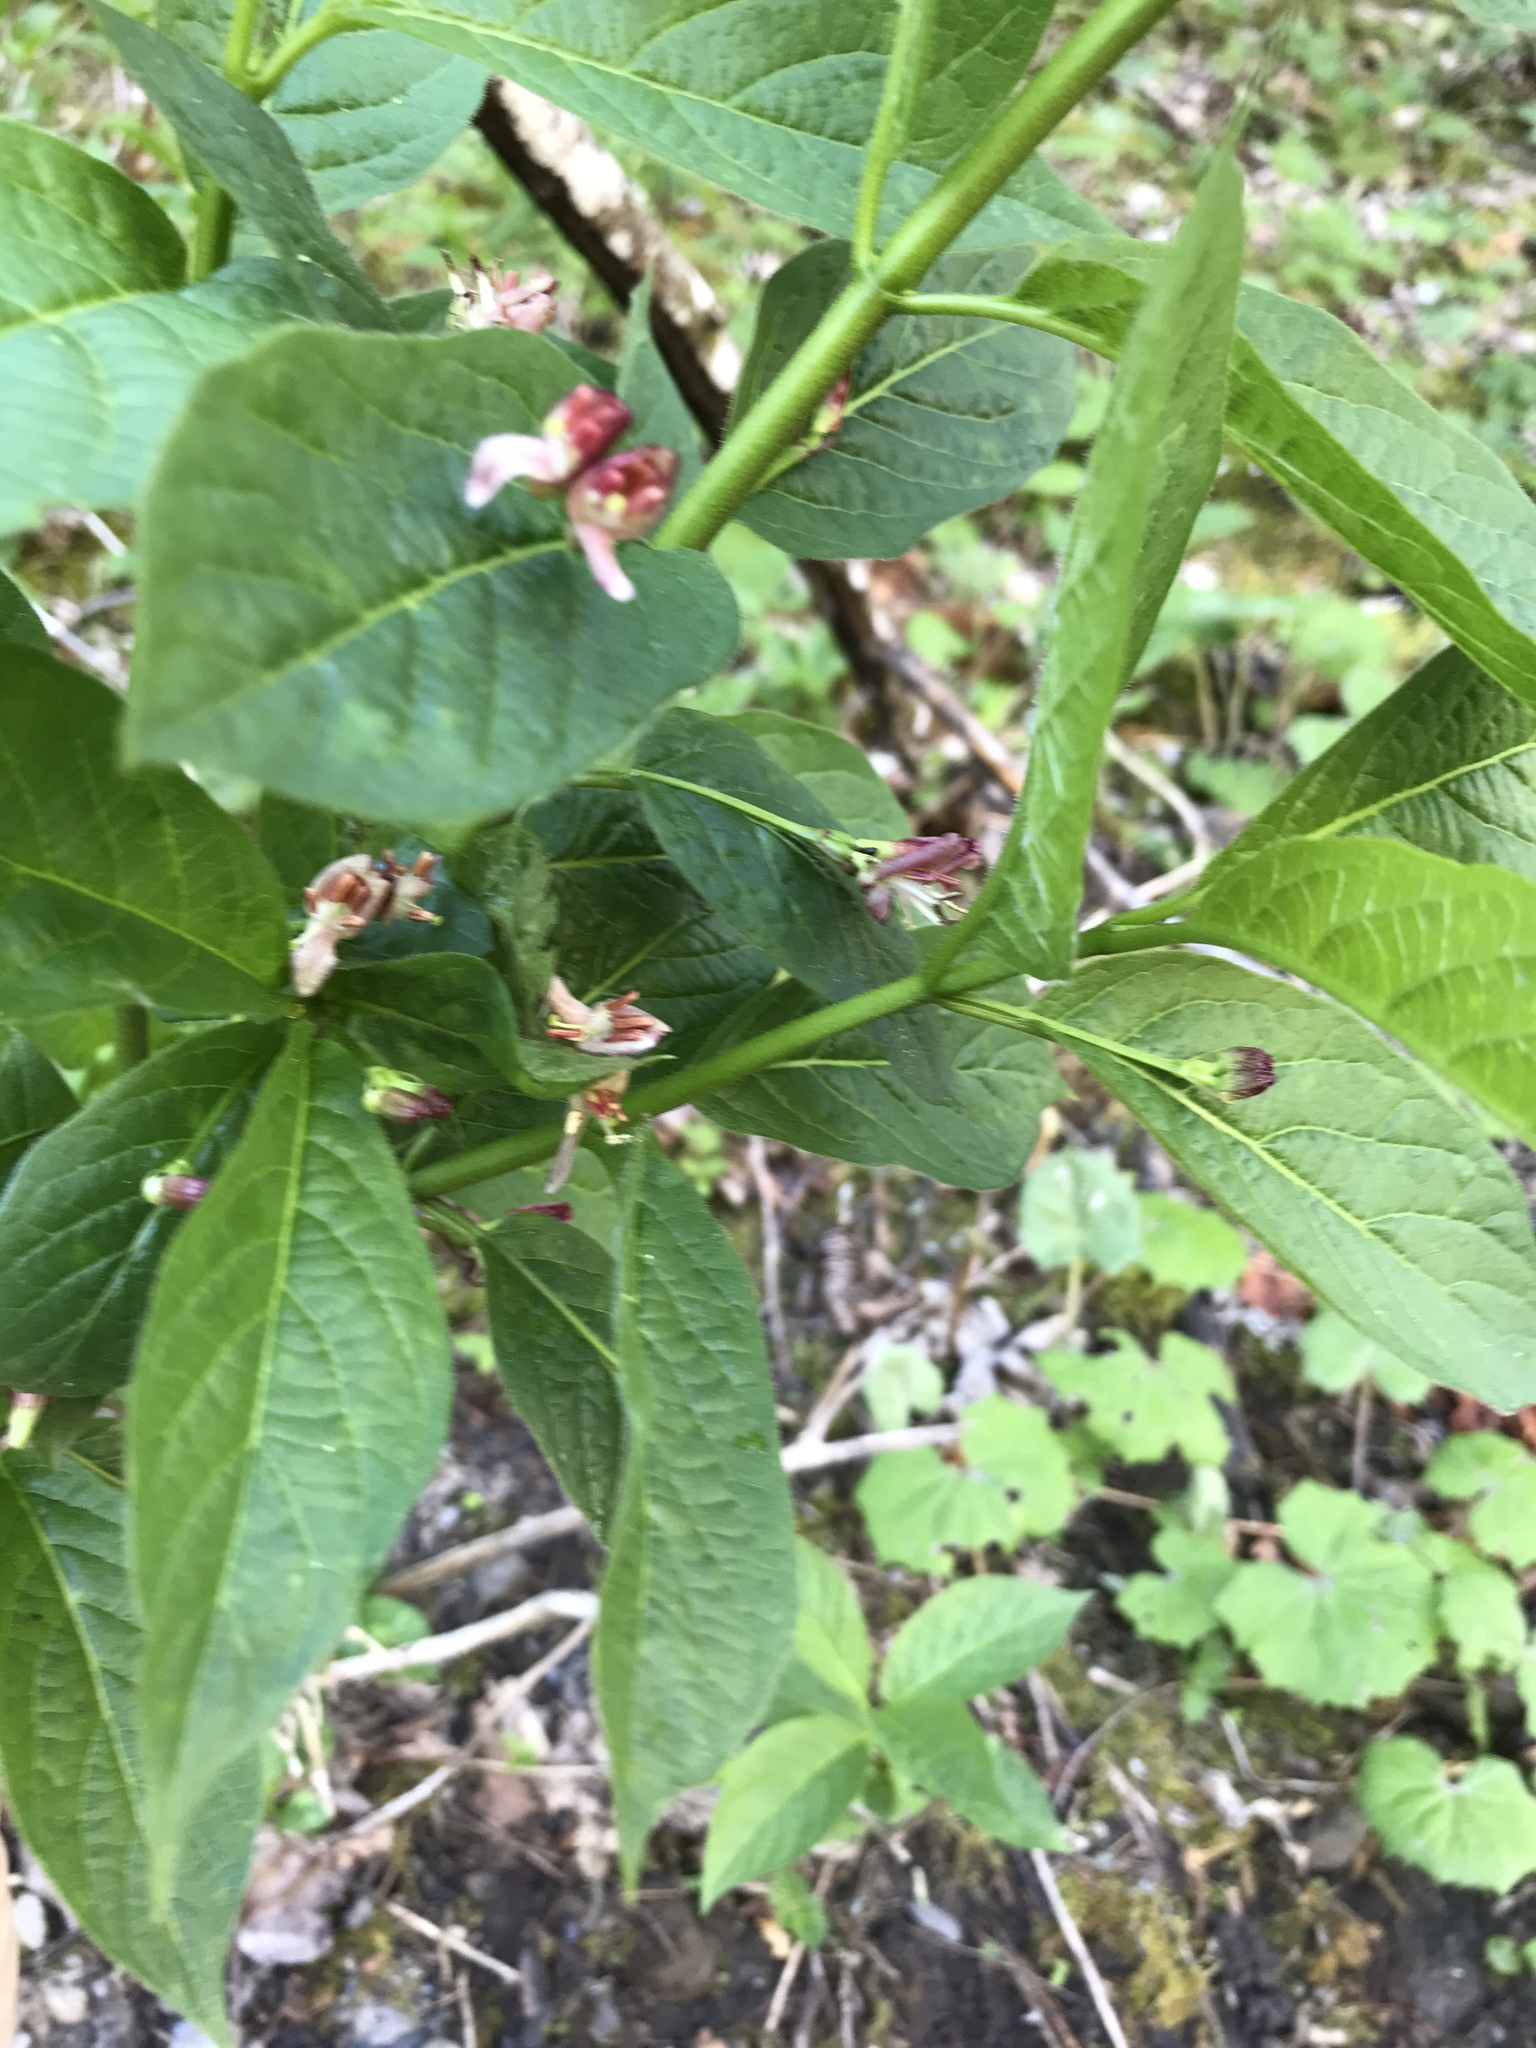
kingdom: Plantae
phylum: Tracheophyta
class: Magnoliopsida
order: Dipsacales
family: Caprifoliaceae
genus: Lonicera
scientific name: Lonicera alpigena
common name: Alpine honeysuckle
